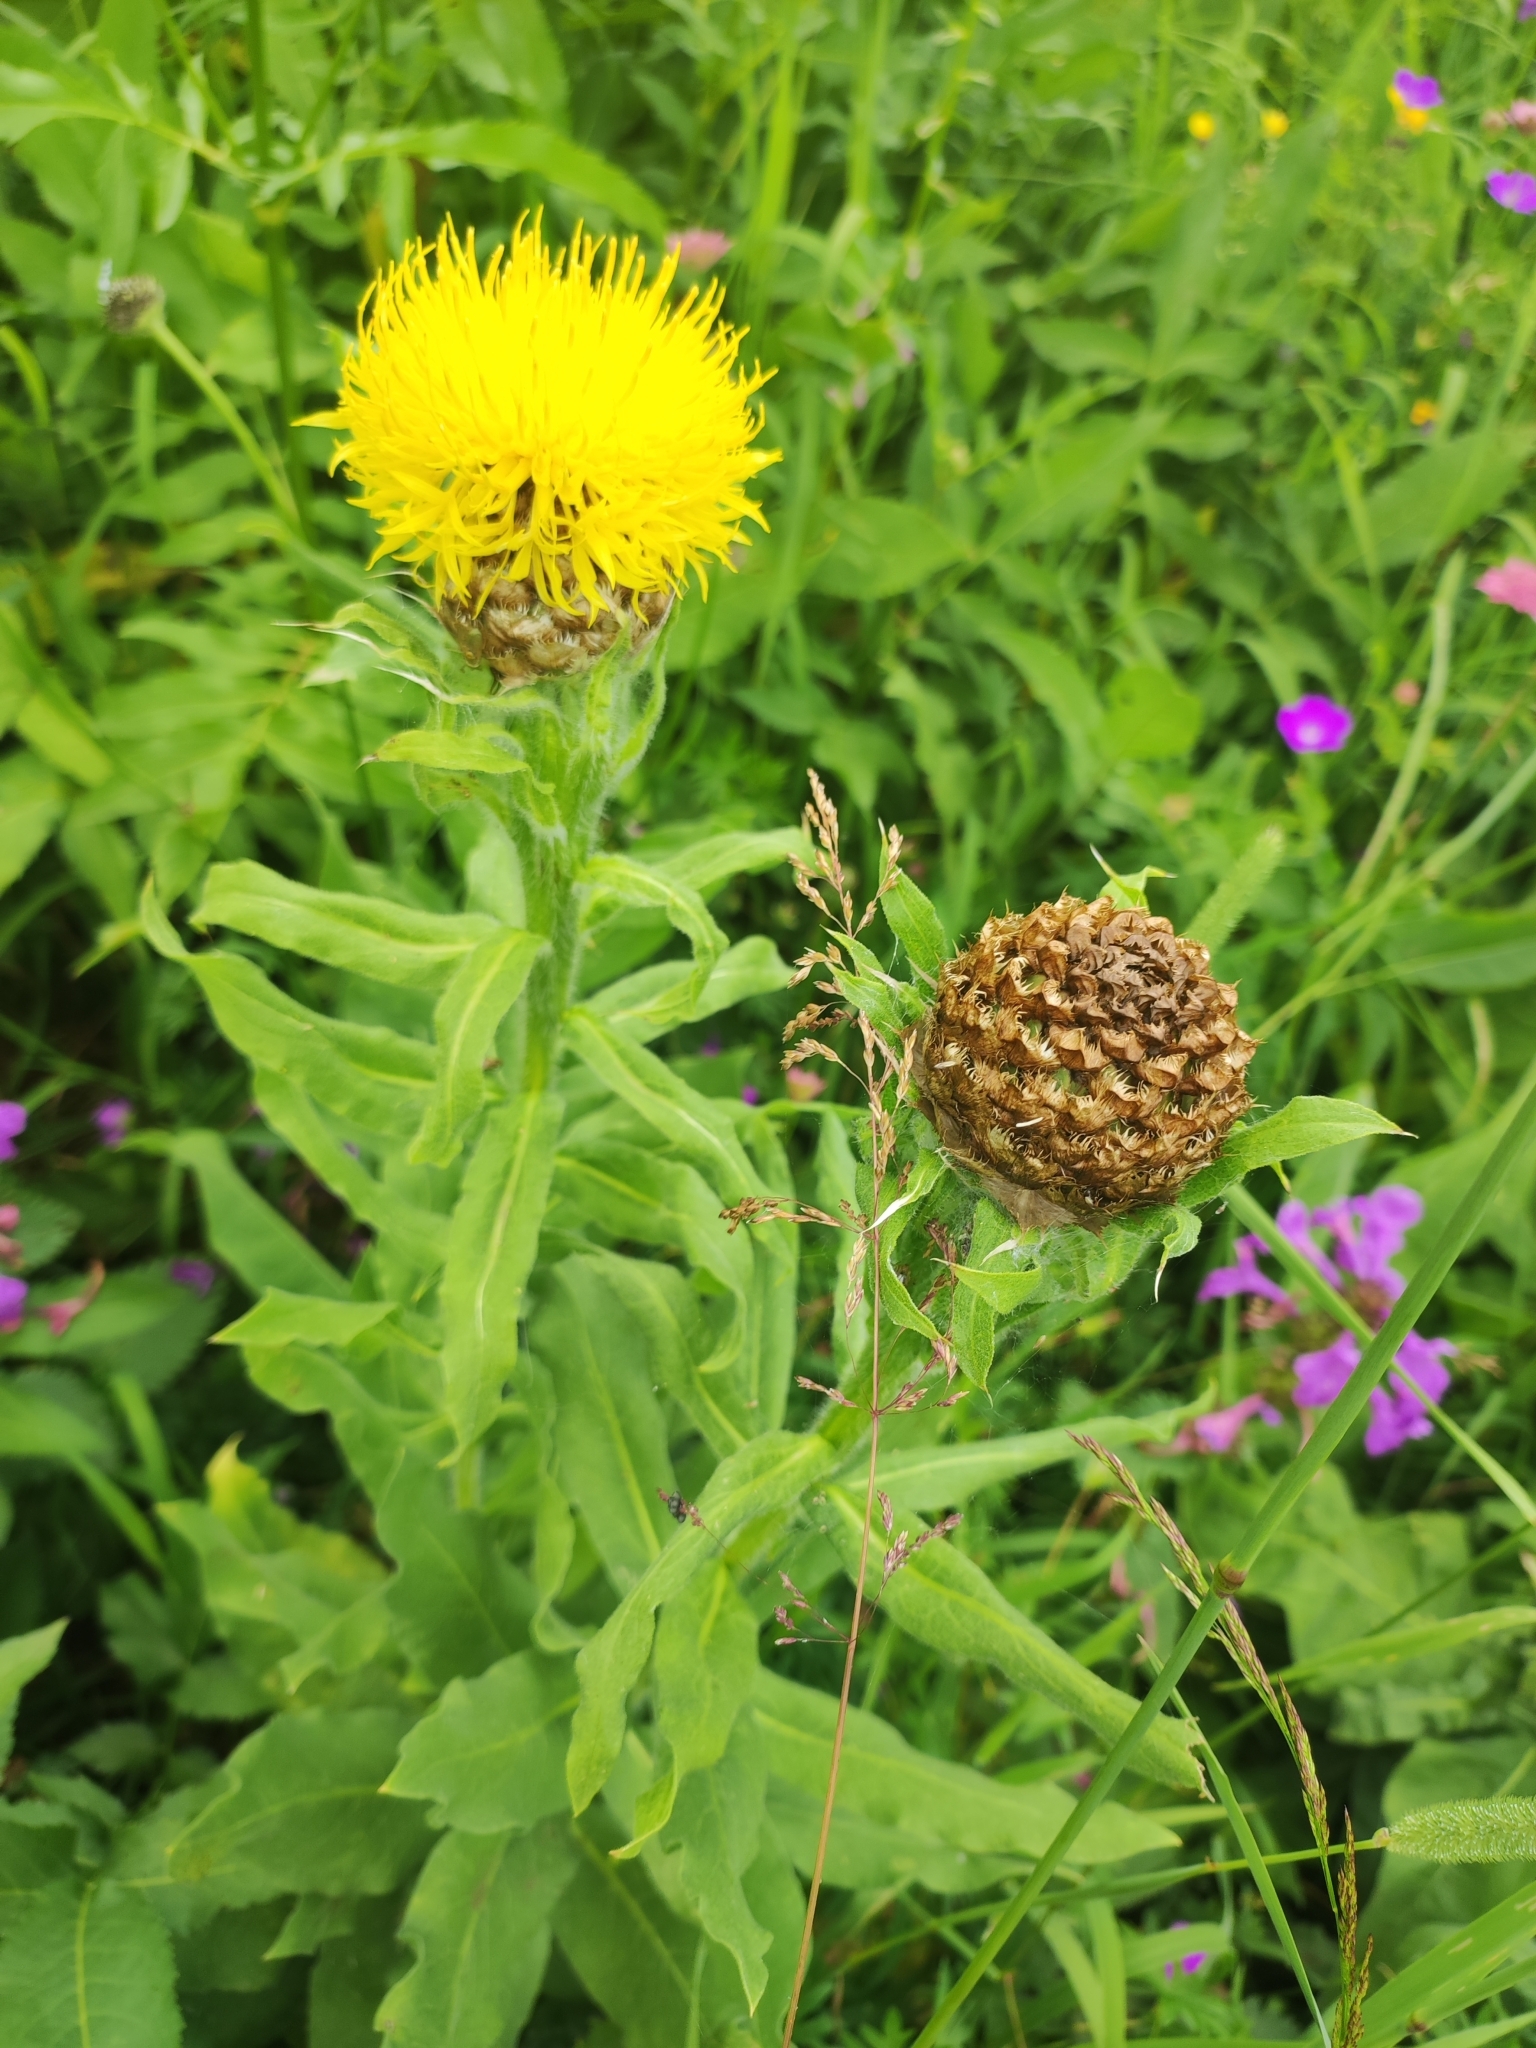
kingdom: Plantae
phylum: Tracheophyta
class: Magnoliopsida
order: Asterales
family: Asteraceae
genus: Centaurea
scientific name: Centaurea macrocephala
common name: Big-head knapweed
